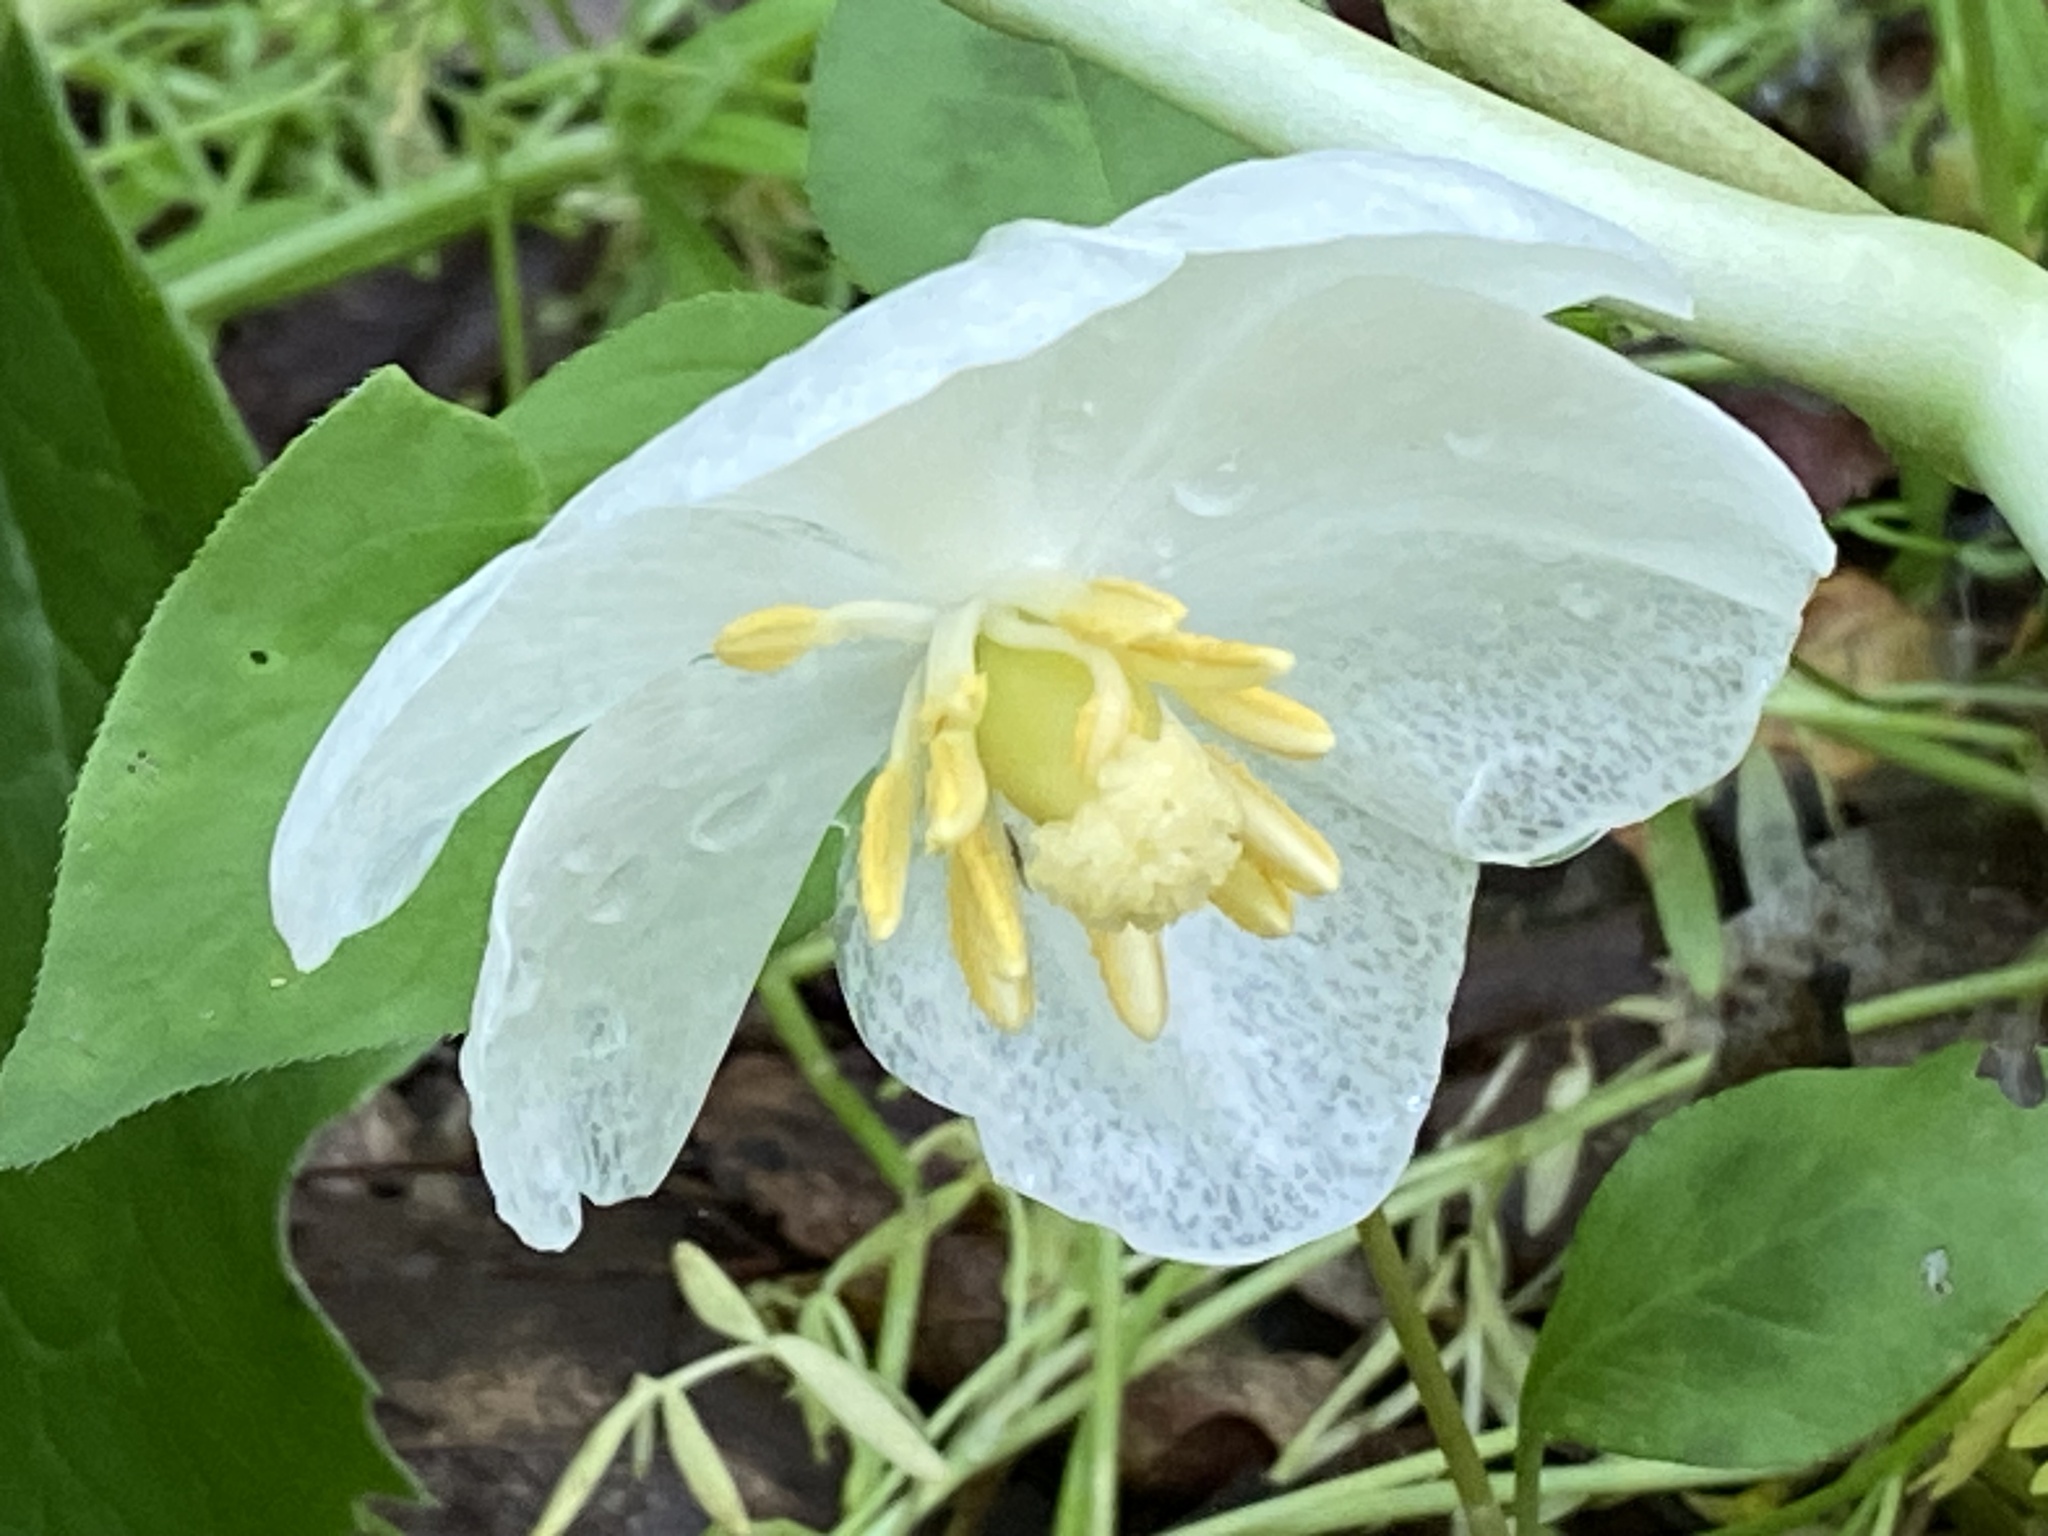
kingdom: Plantae
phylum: Tracheophyta
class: Magnoliopsida
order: Ranunculales
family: Berberidaceae
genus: Podophyllum
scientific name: Podophyllum peltatum
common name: Wild mandrake
